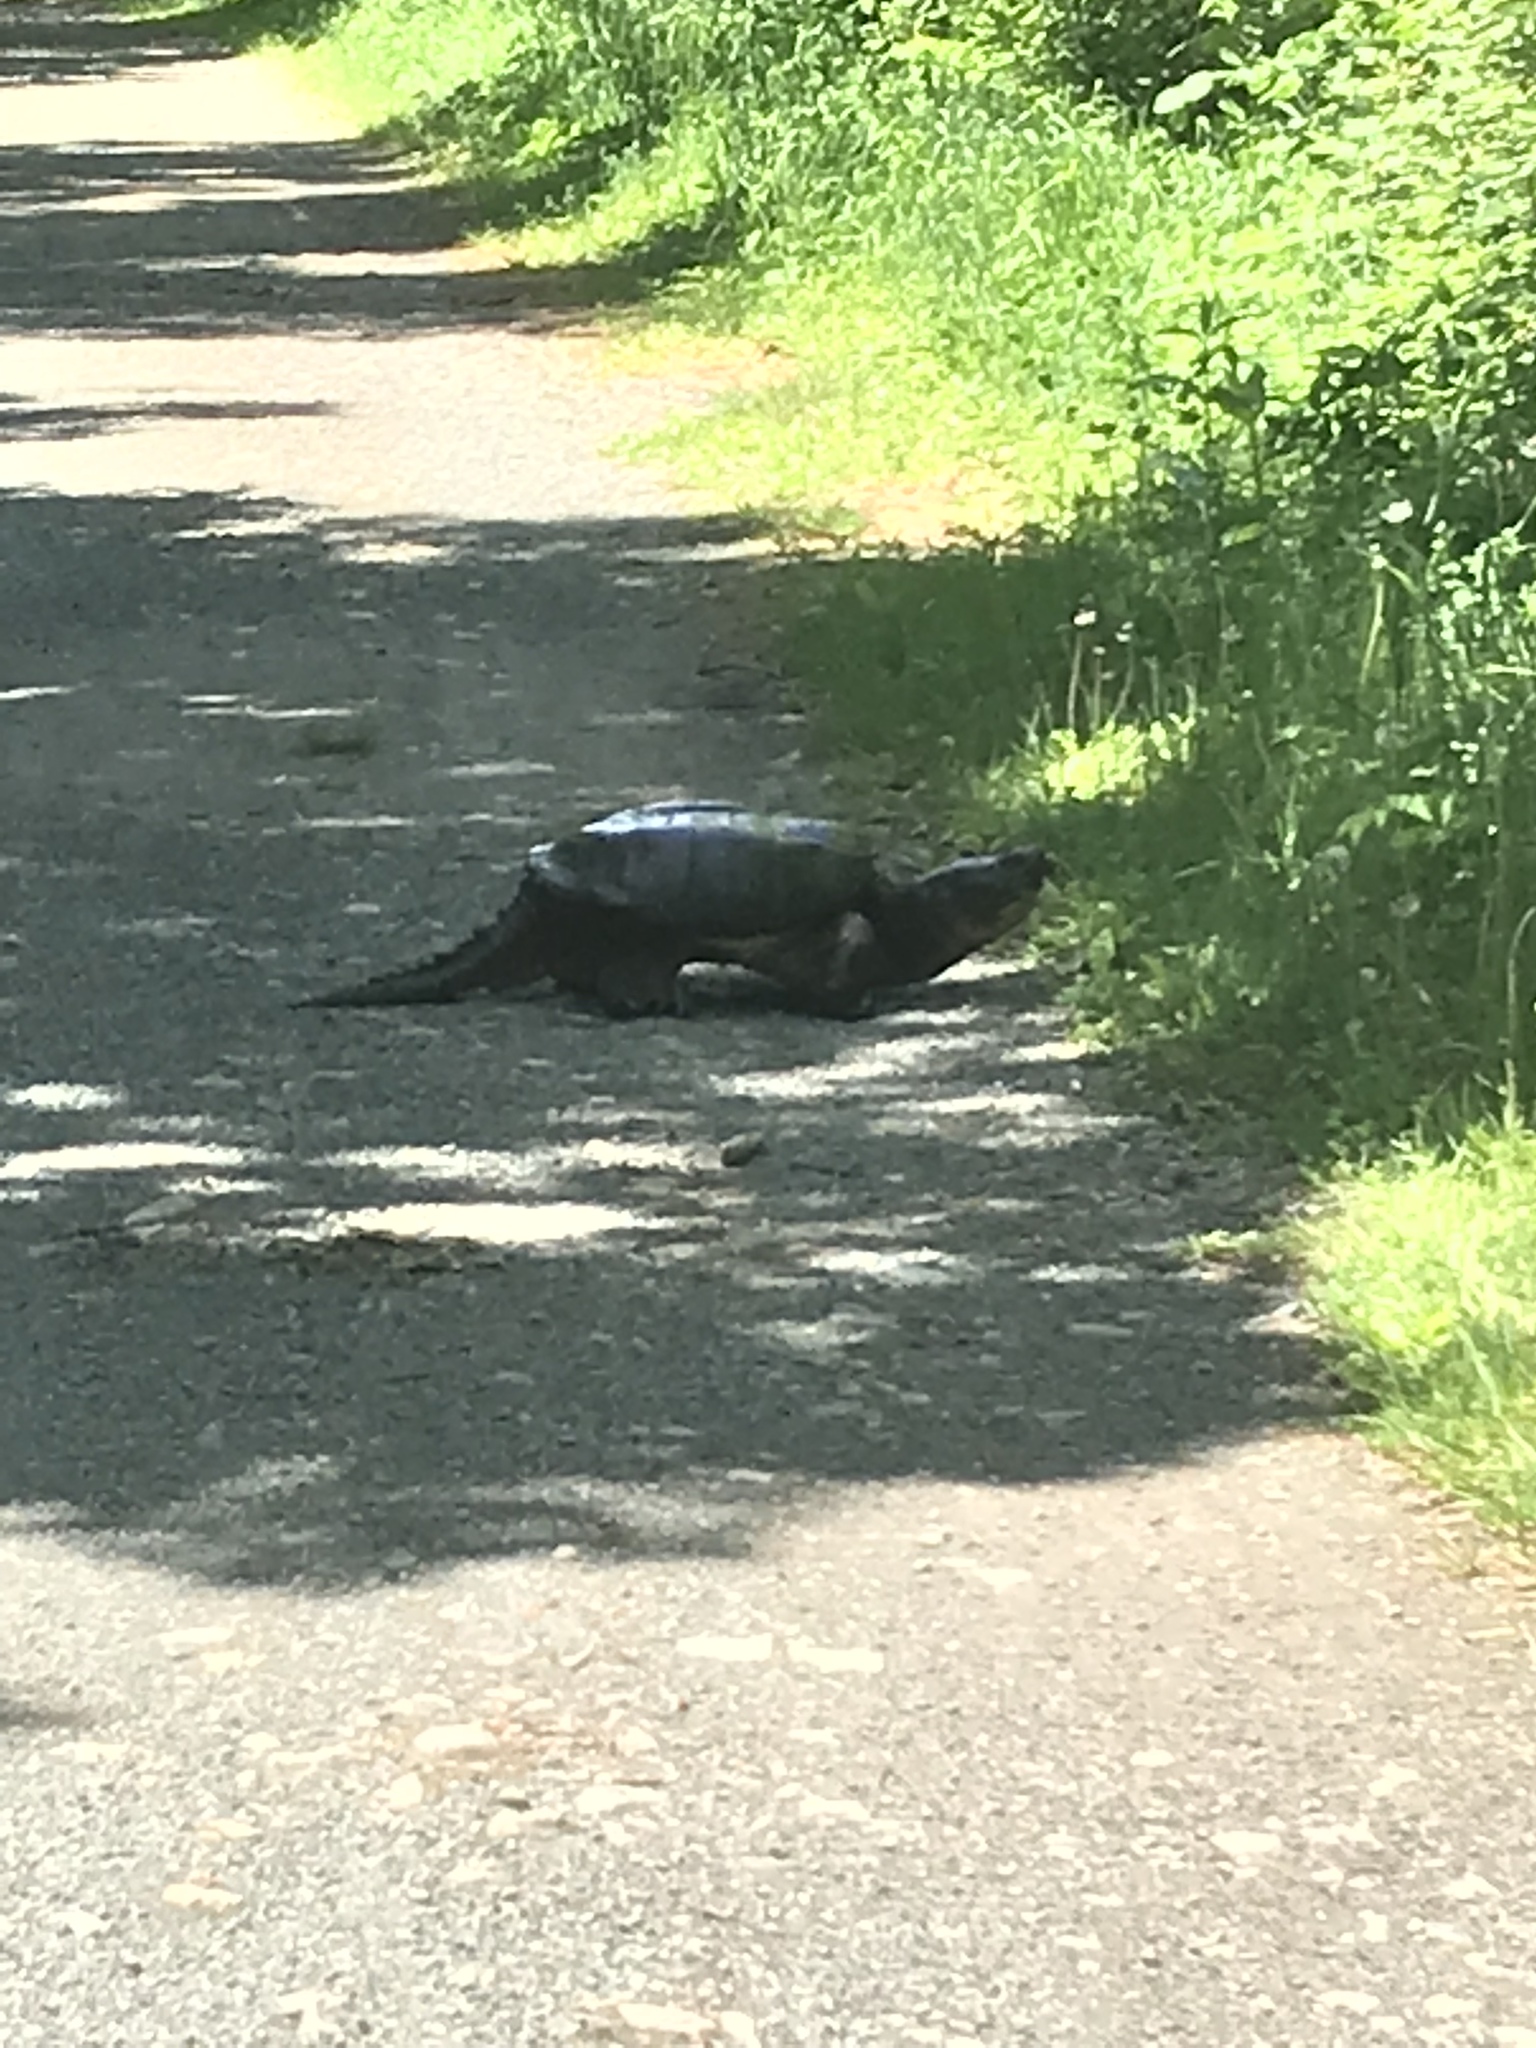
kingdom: Animalia
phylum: Chordata
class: Testudines
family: Chelydridae
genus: Chelydra
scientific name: Chelydra serpentina
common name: Common snapping turtle
